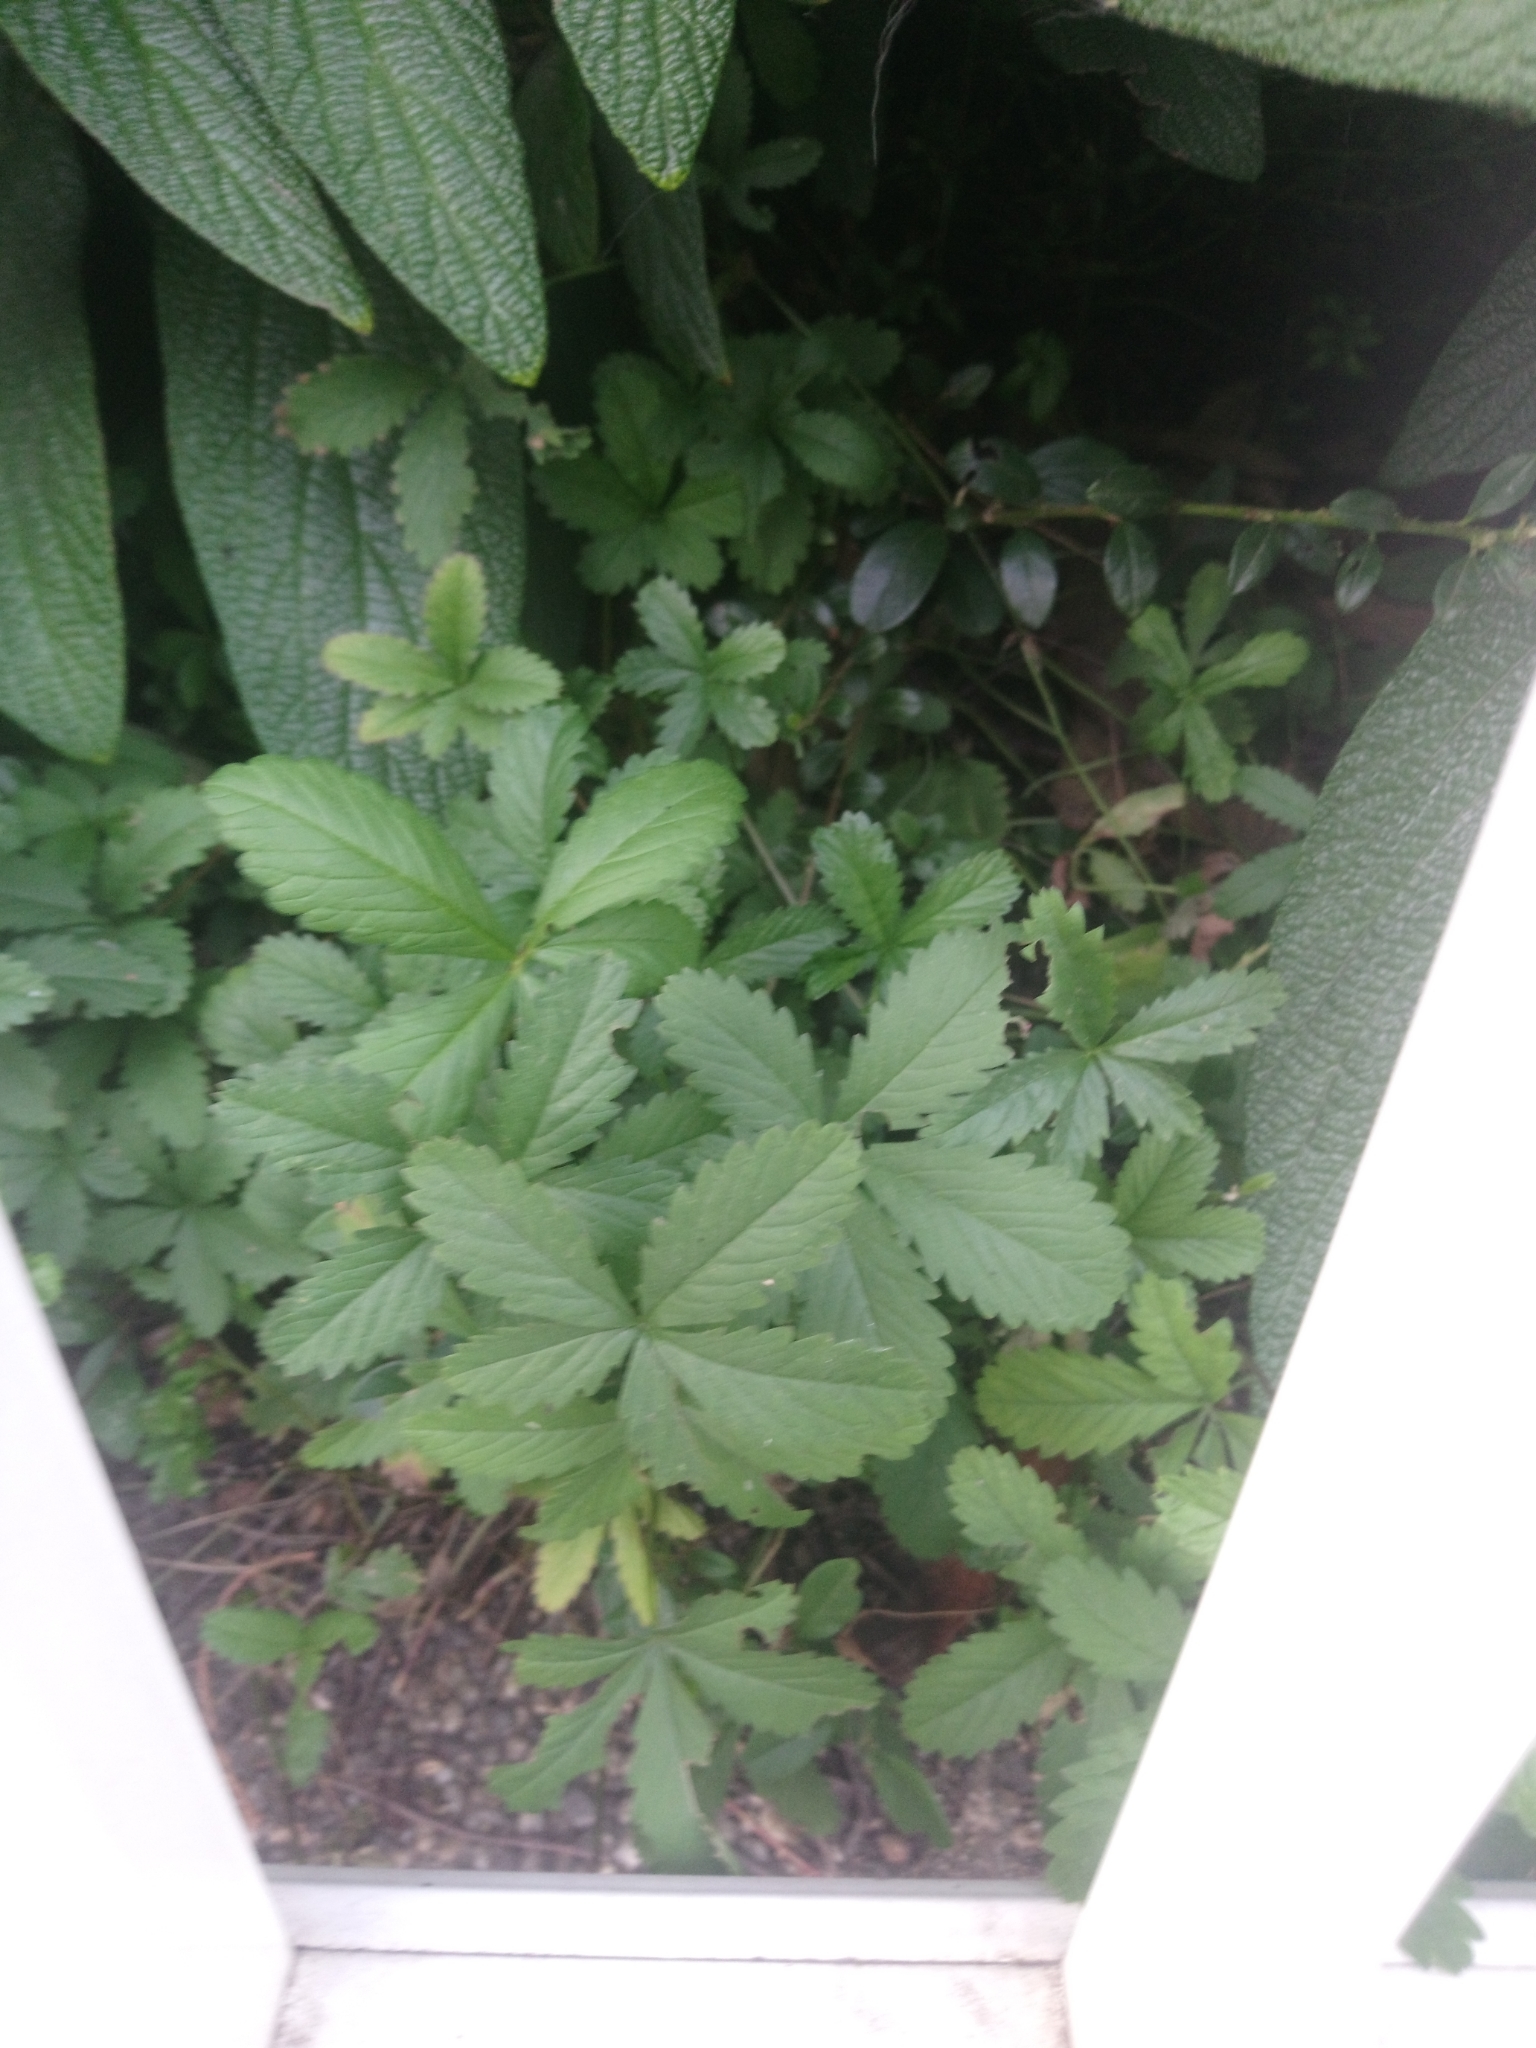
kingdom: Plantae
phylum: Tracheophyta
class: Magnoliopsida
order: Rosales
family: Rosaceae
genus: Potentilla
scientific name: Potentilla reptans
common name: Creeping cinquefoil
